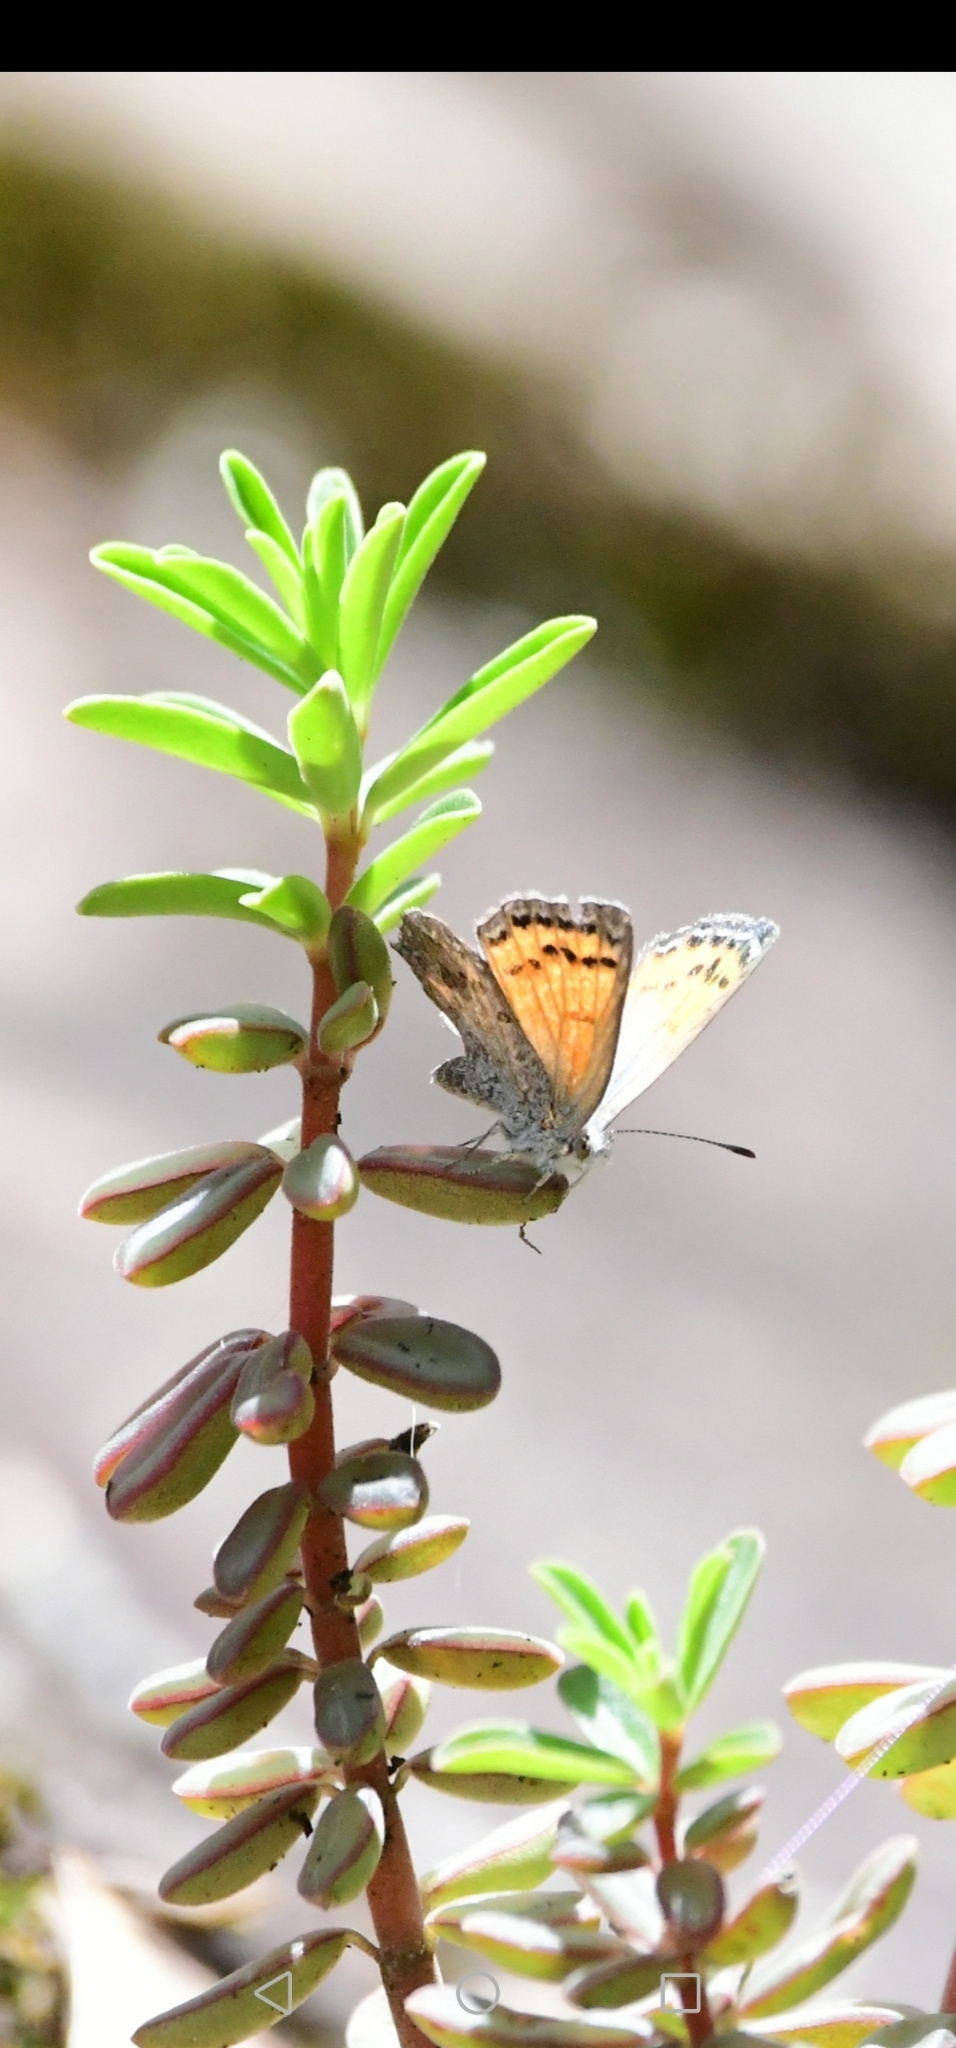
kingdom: Animalia
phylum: Arthropoda
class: Insecta
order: Lepidoptera
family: Lycaenidae
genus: Nabokovia
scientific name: Nabokovia
